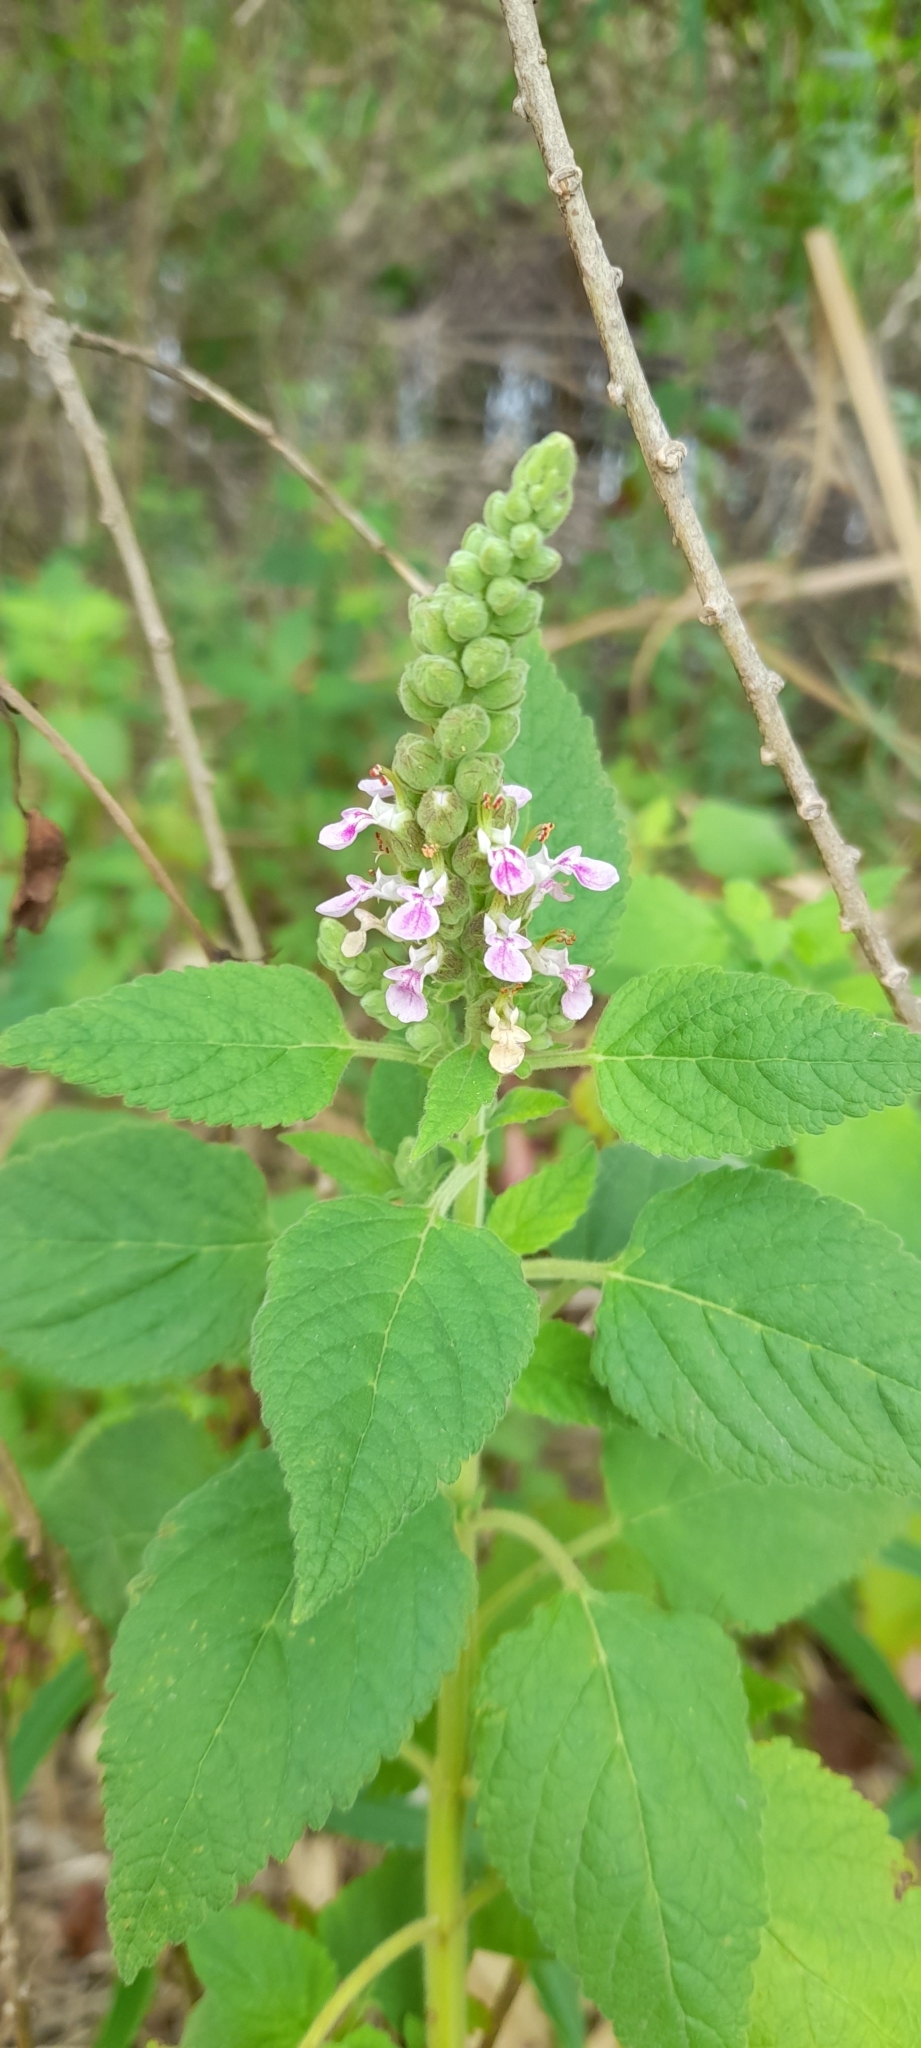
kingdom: Plantae
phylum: Tracheophyta
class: Magnoliopsida
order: Lamiales
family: Lamiaceae
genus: Teucrium
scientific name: Teucrium vesicarium
